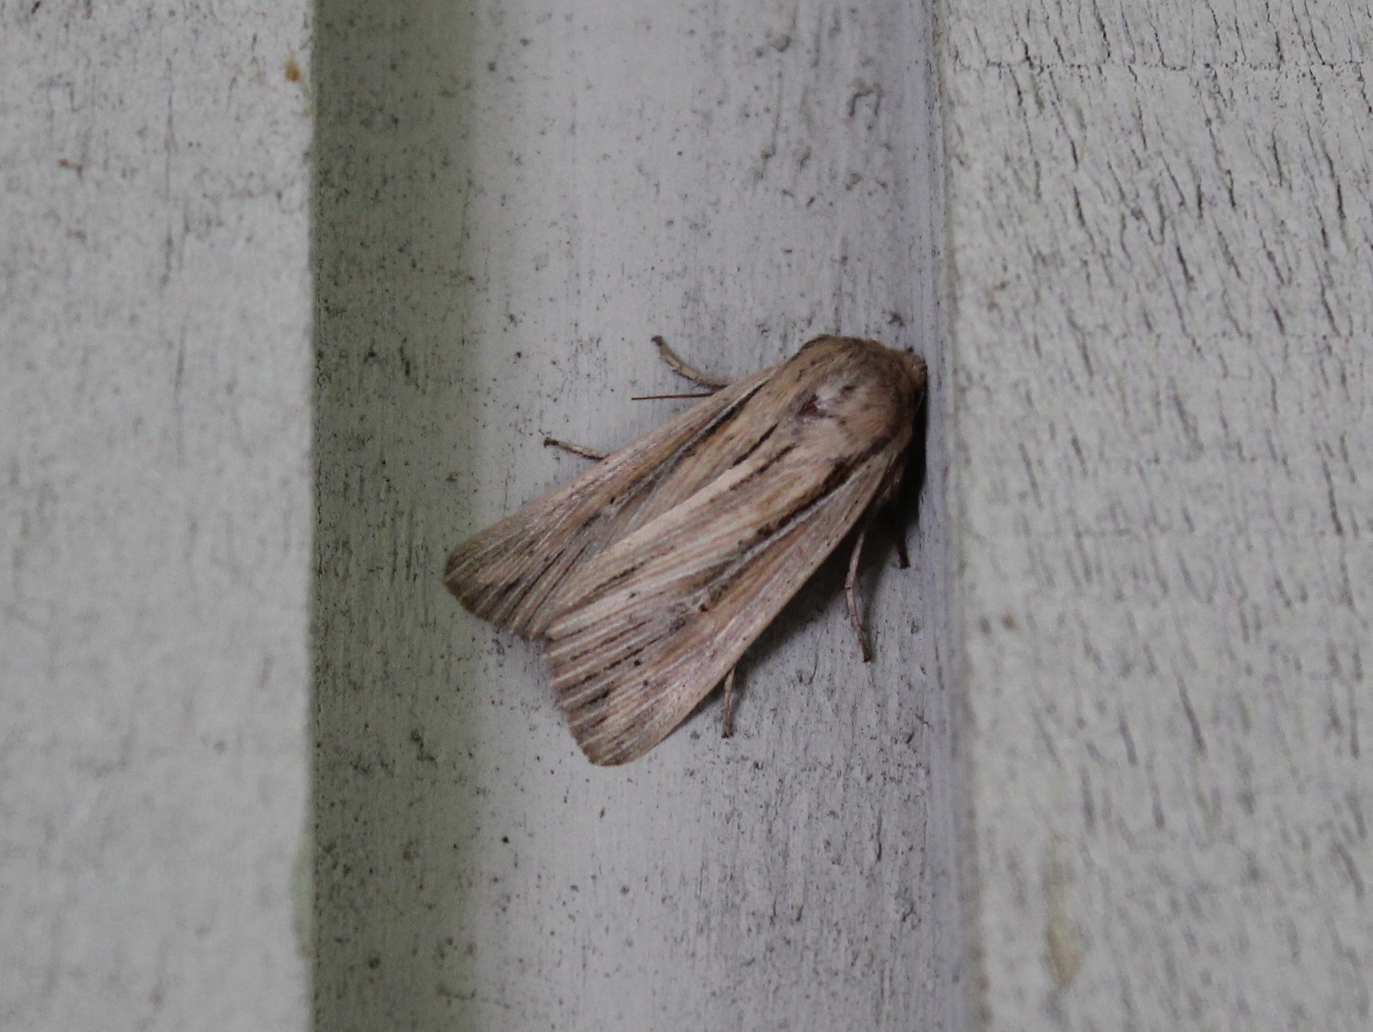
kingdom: Animalia
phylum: Arthropoda
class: Insecta
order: Lepidoptera
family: Noctuidae
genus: Leucania
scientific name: Leucania commoides
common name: Two-lined wainscot
